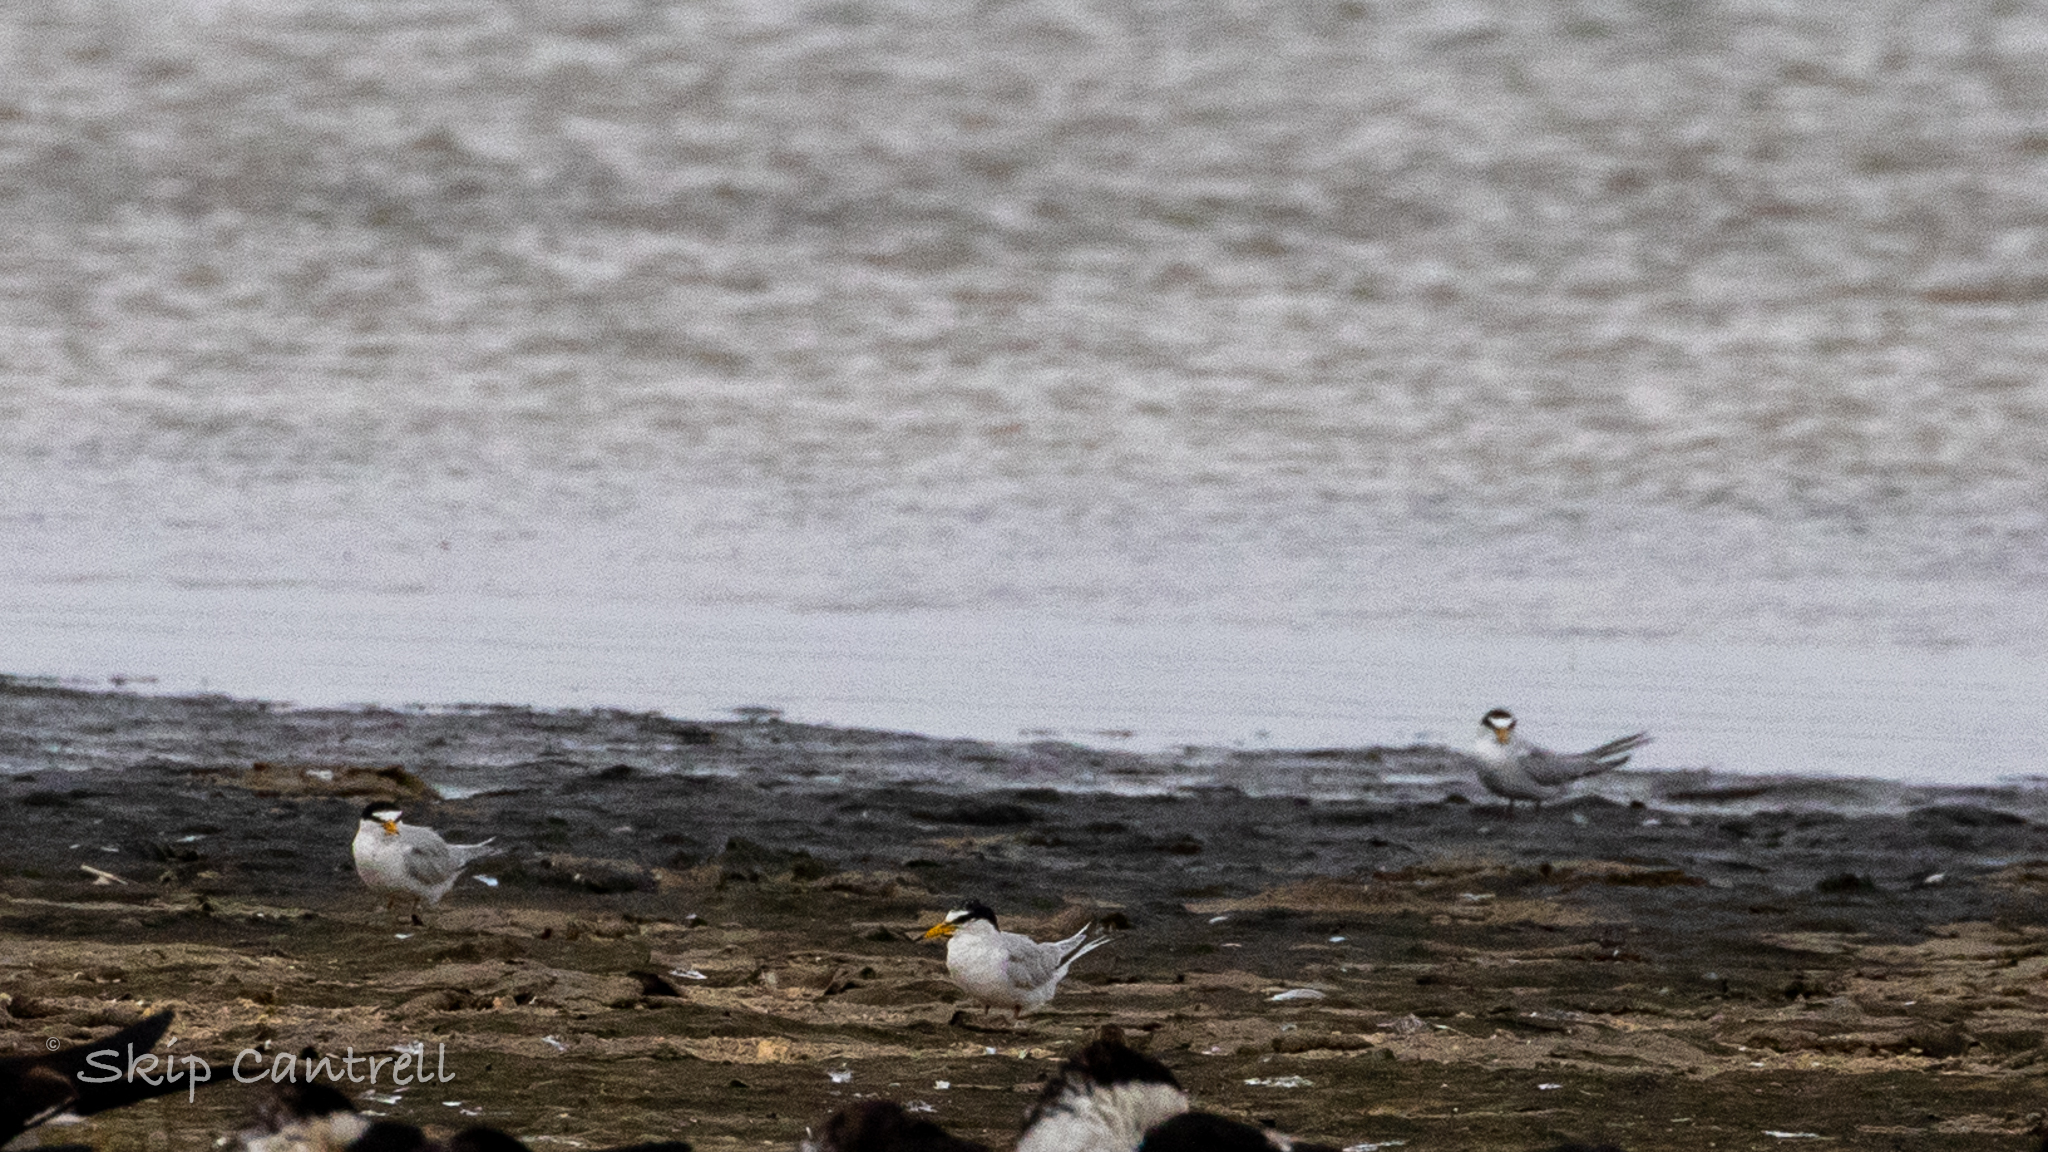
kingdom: Animalia
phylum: Chordata
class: Aves
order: Charadriiformes
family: Laridae
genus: Sternula
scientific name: Sternula antillarum
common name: Least tern
